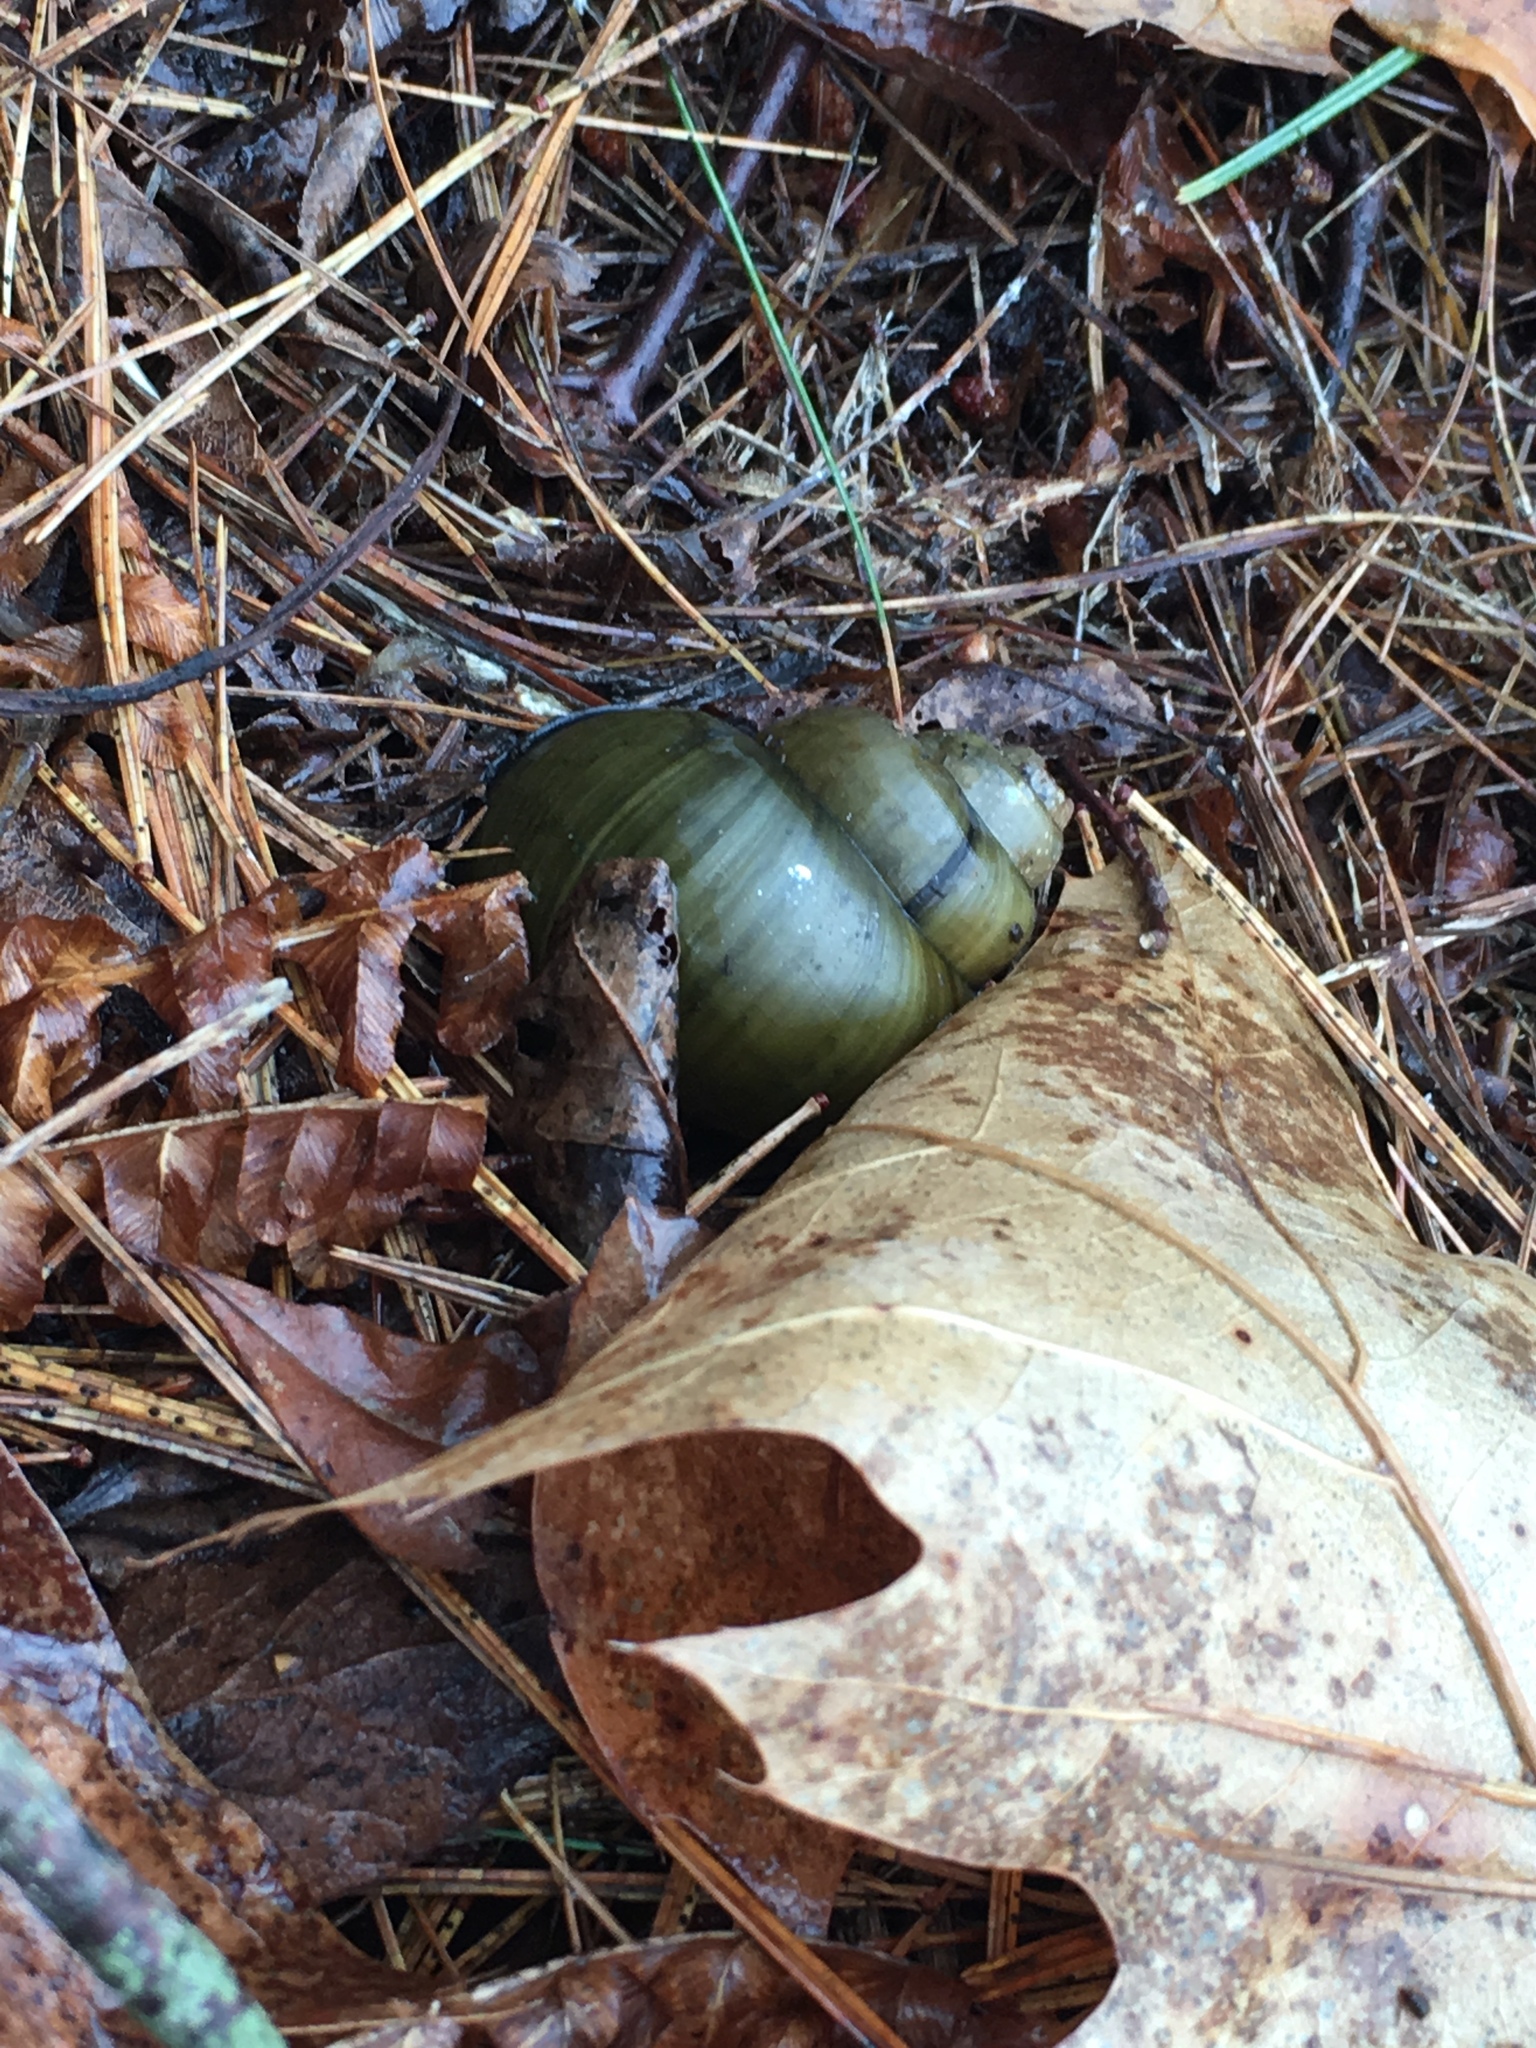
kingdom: Animalia
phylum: Mollusca
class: Gastropoda
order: Architaenioglossa
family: Viviparidae
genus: Cipangopaludina
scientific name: Cipangopaludina chinensis
